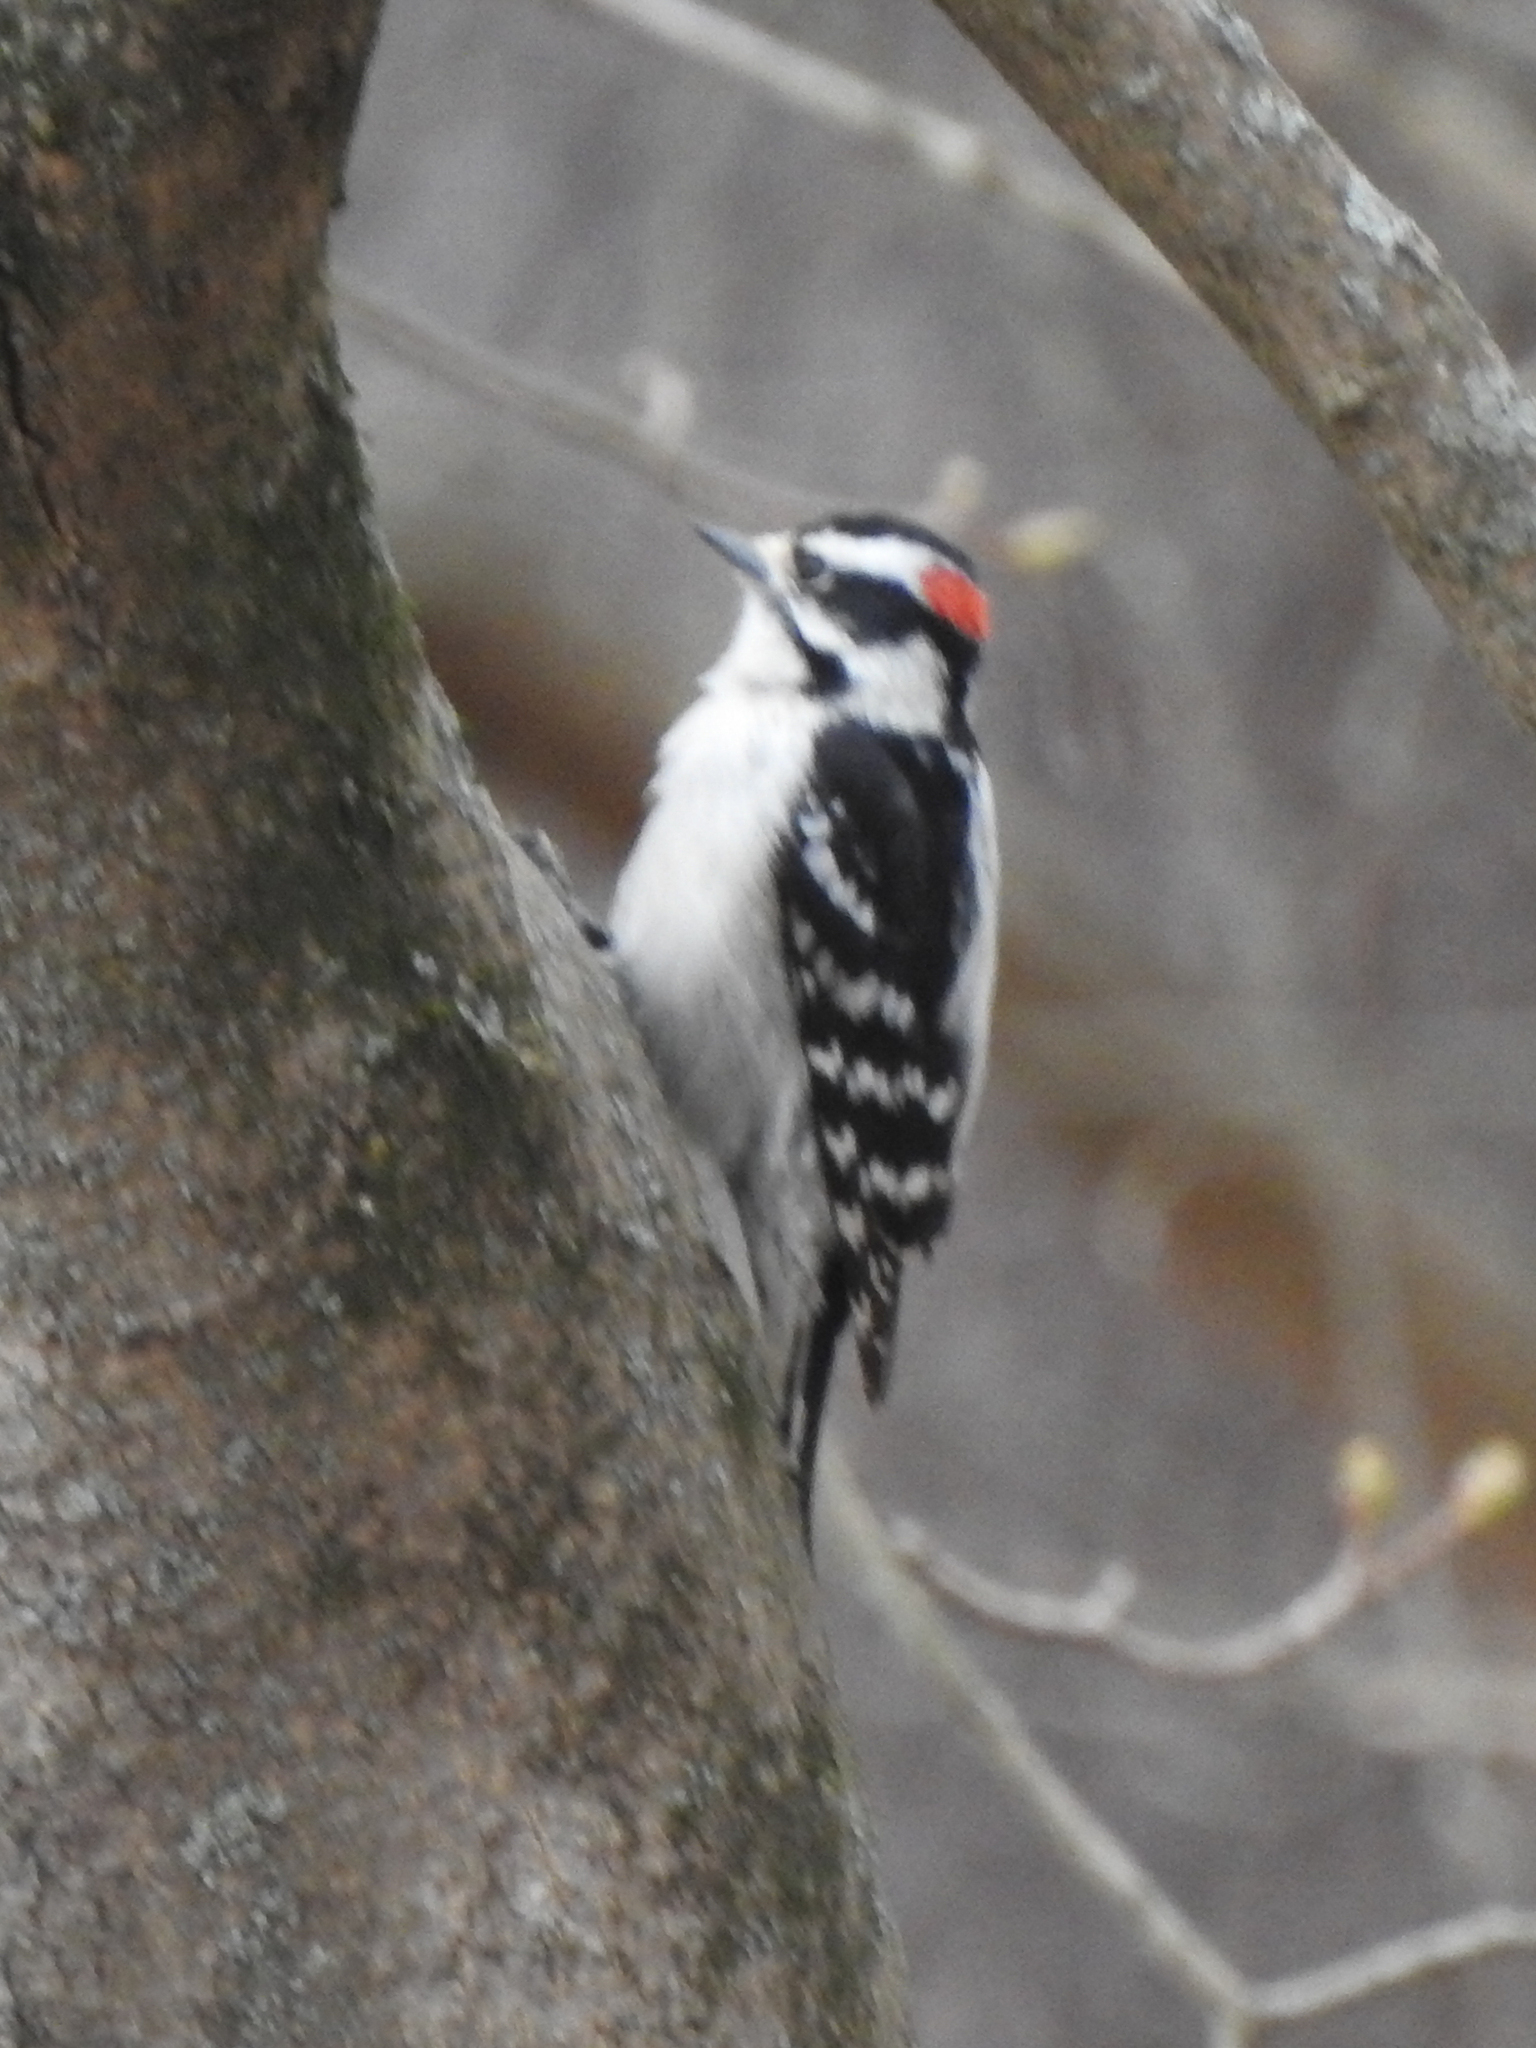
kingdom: Animalia
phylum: Chordata
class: Aves
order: Piciformes
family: Picidae
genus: Dryobates
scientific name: Dryobates pubescens
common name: Downy woodpecker
